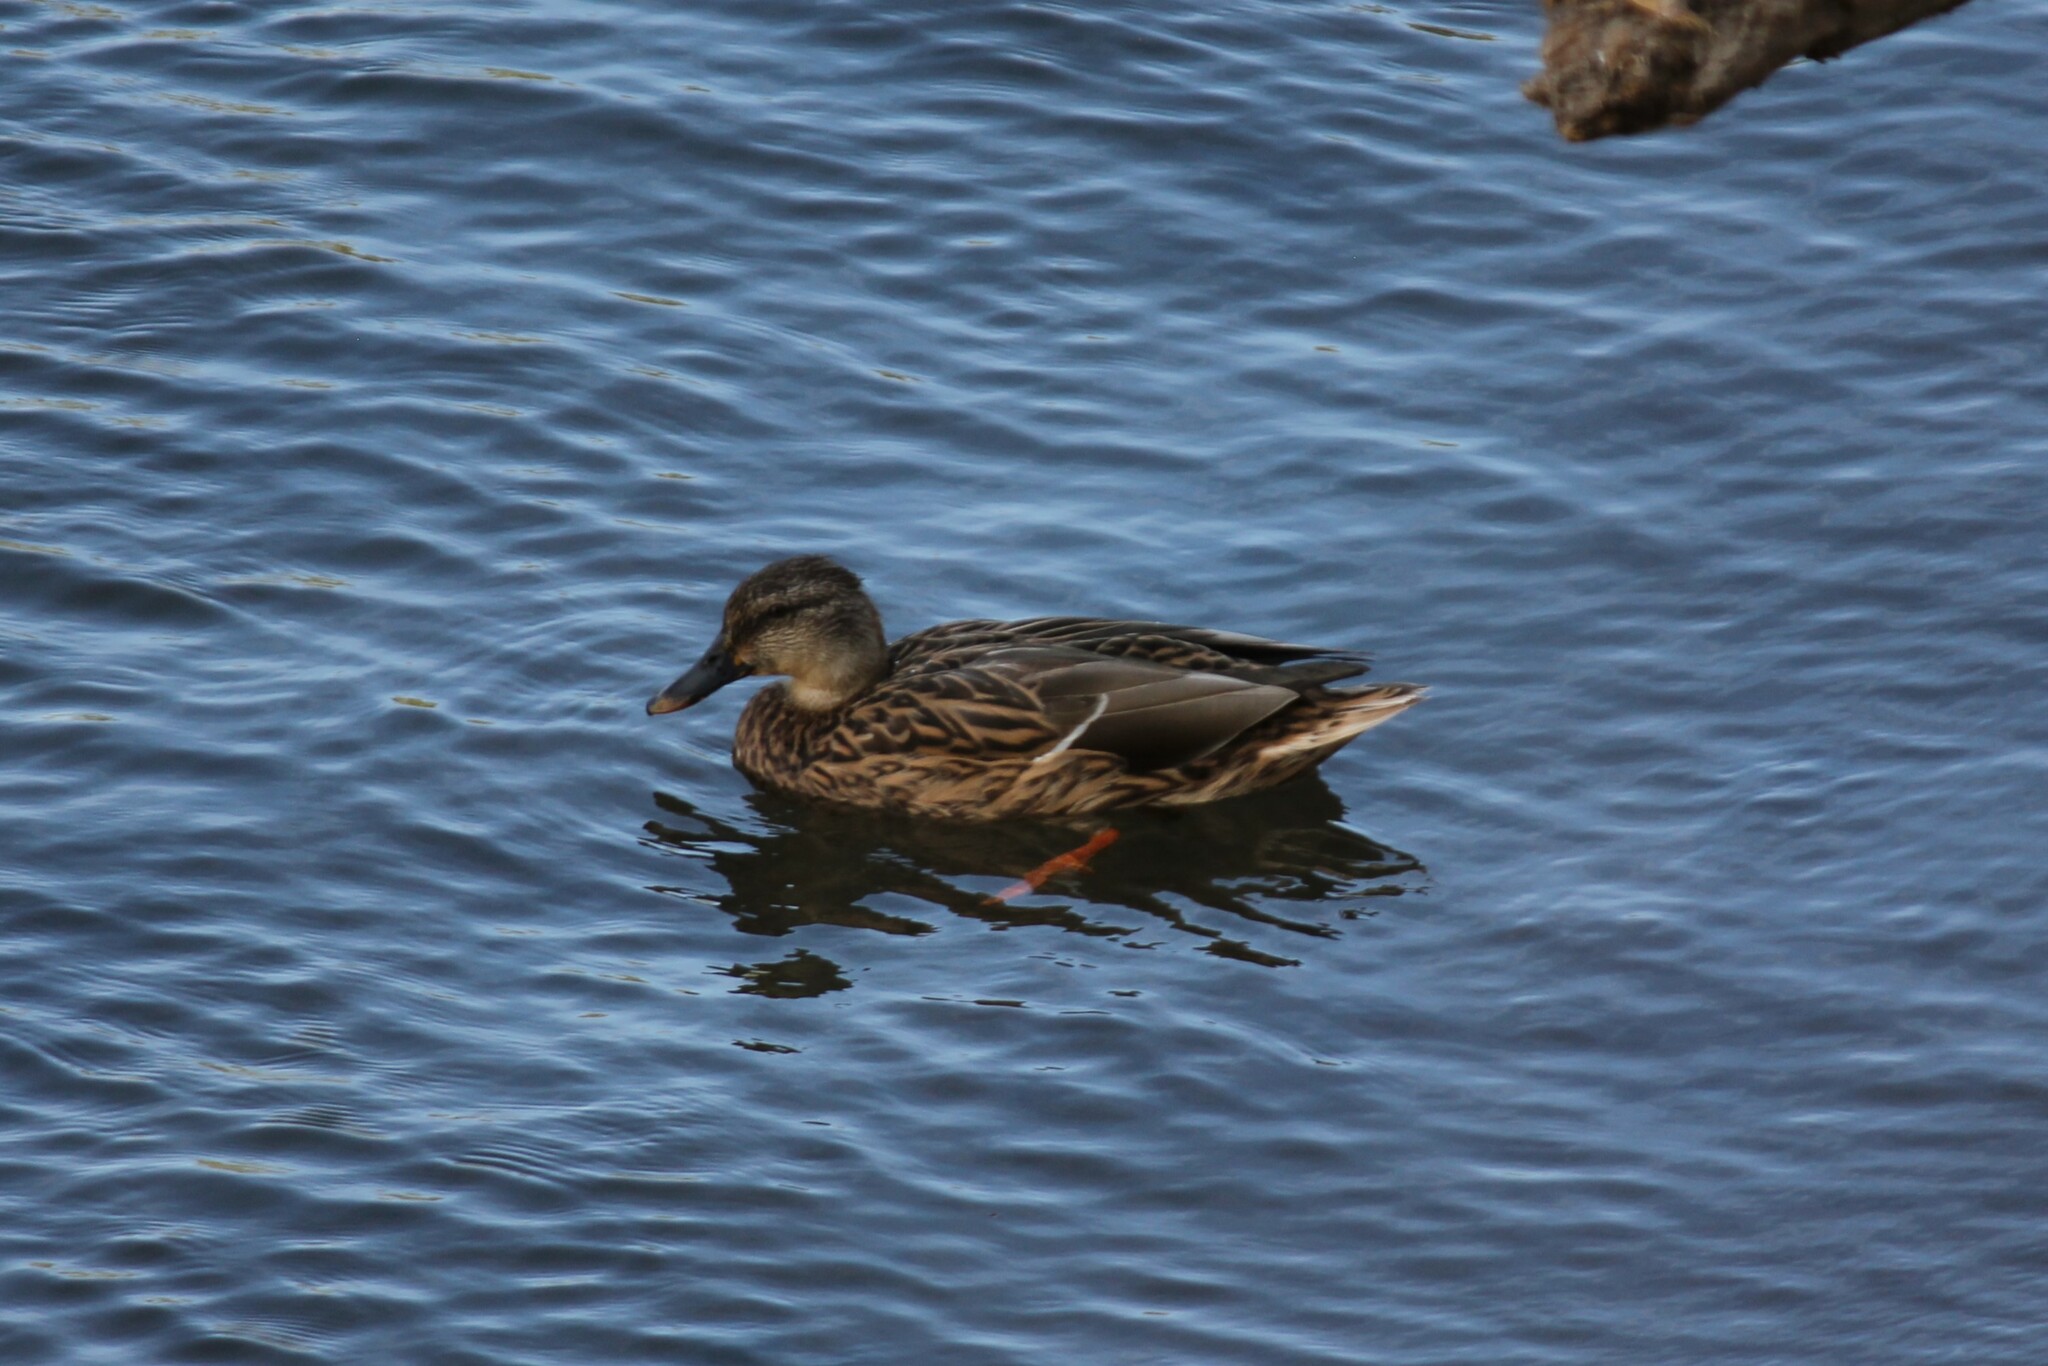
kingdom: Animalia
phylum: Chordata
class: Aves
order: Anseriformes
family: Anatidae
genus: Anas
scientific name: Anas platyrhynchos
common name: Mallard
